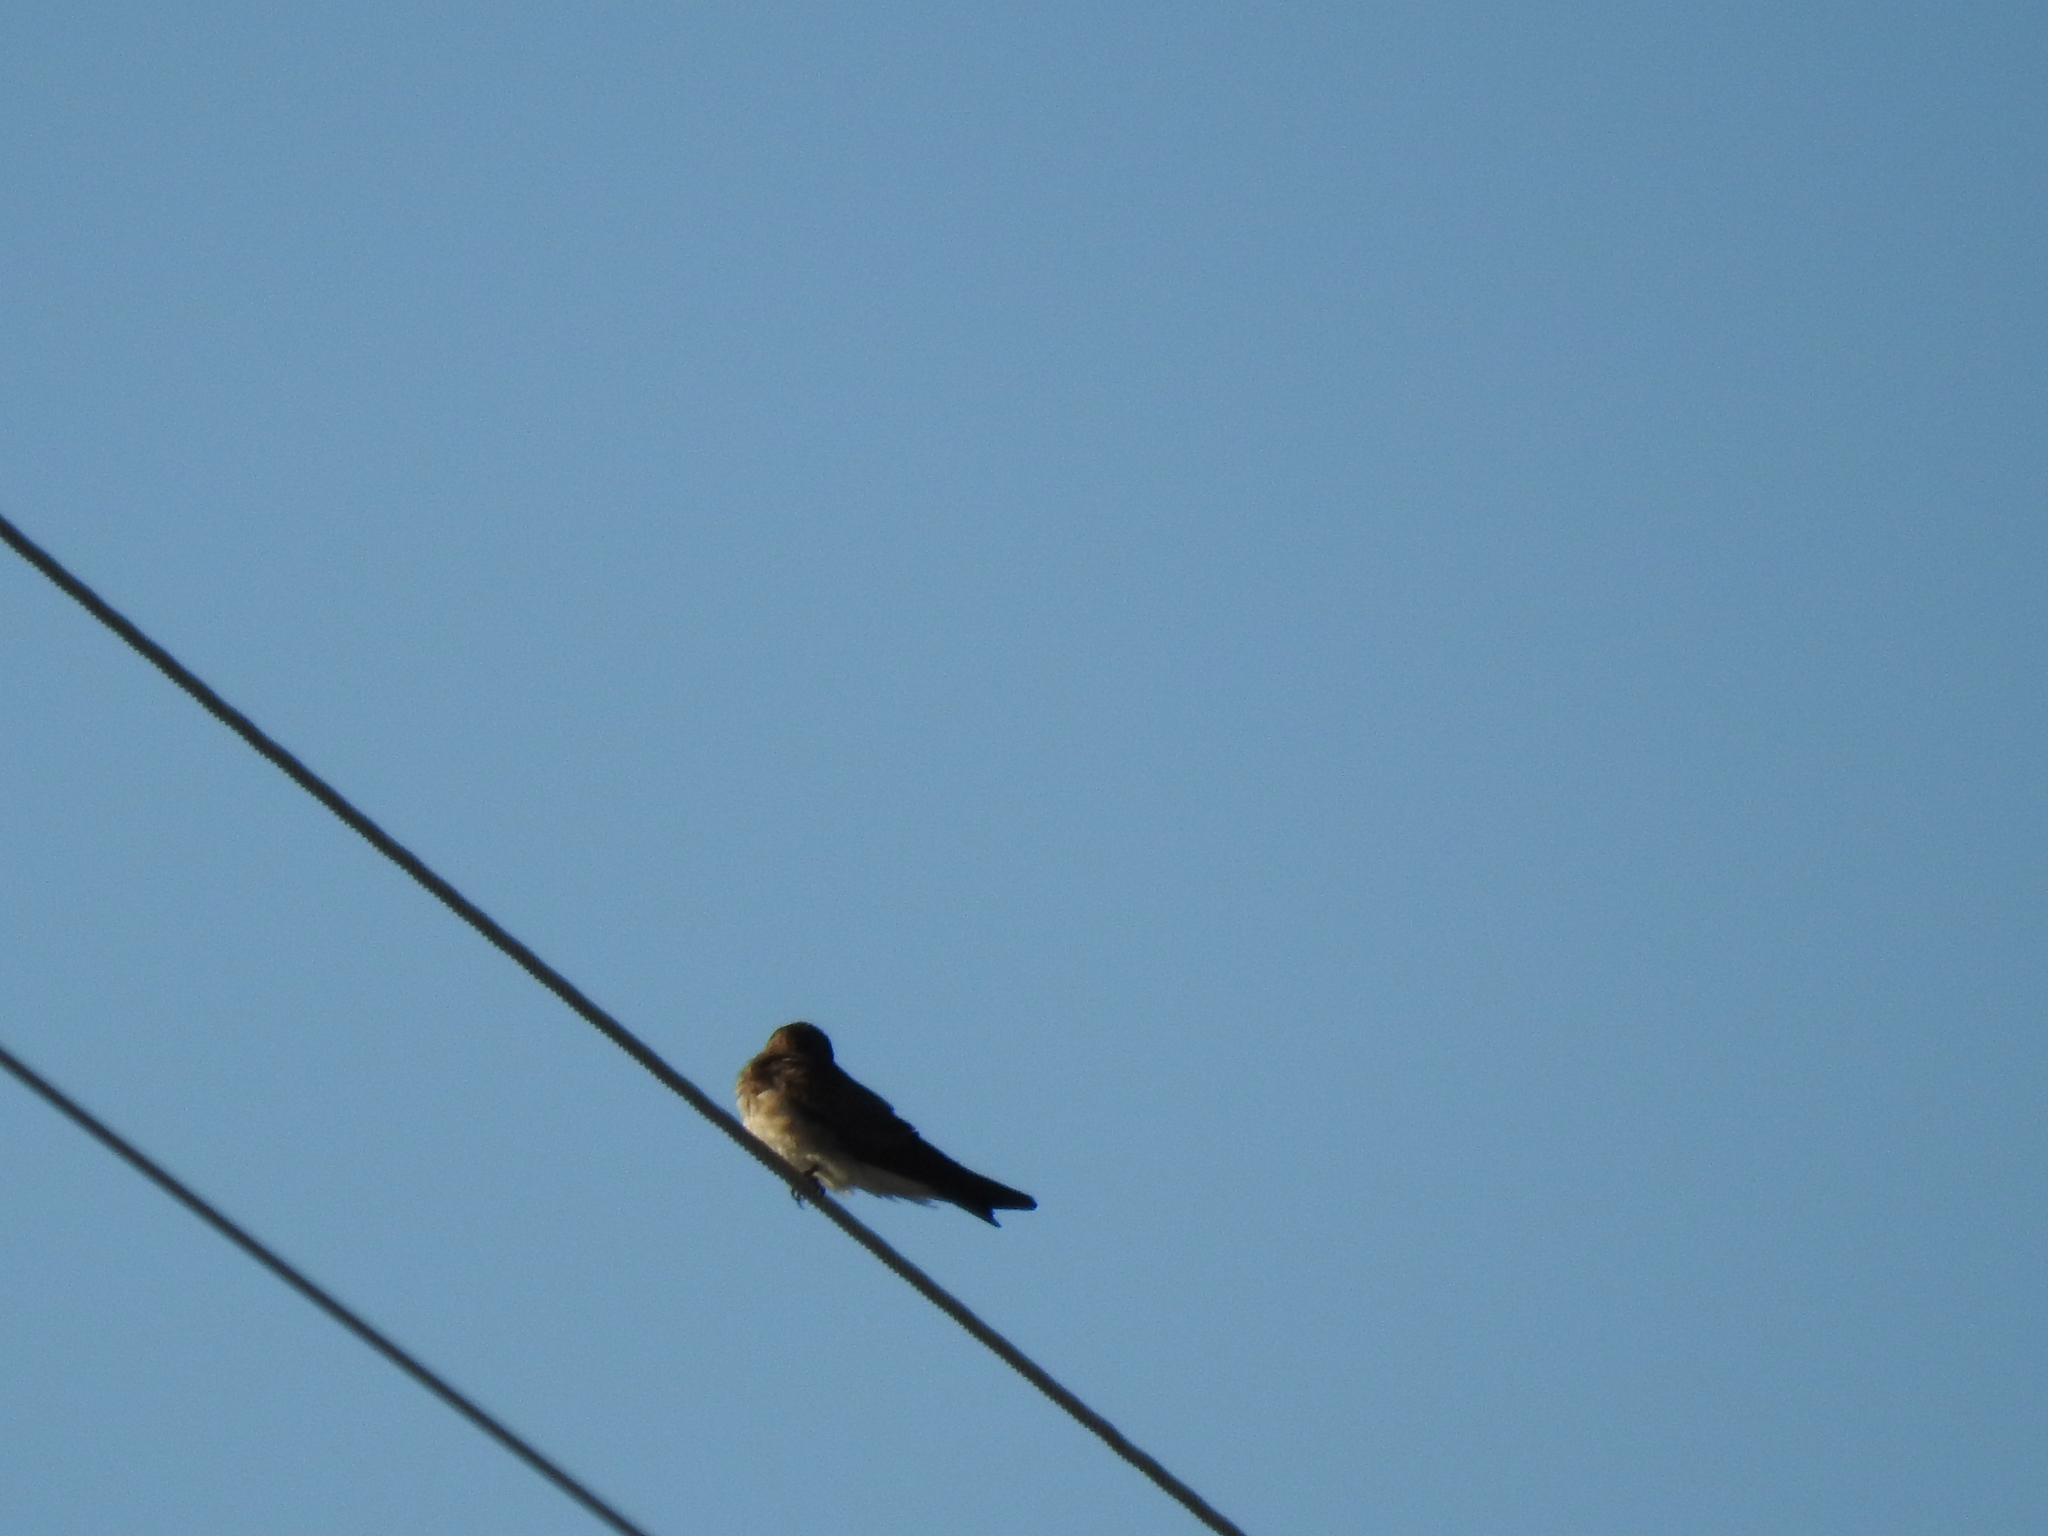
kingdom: Animalia
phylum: Chordata
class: Aves
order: Passeriformes
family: Hirundinidae
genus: Stelgidopteryx
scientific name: Stelgidopteryx serripennis
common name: Northern rough-winged swallow
